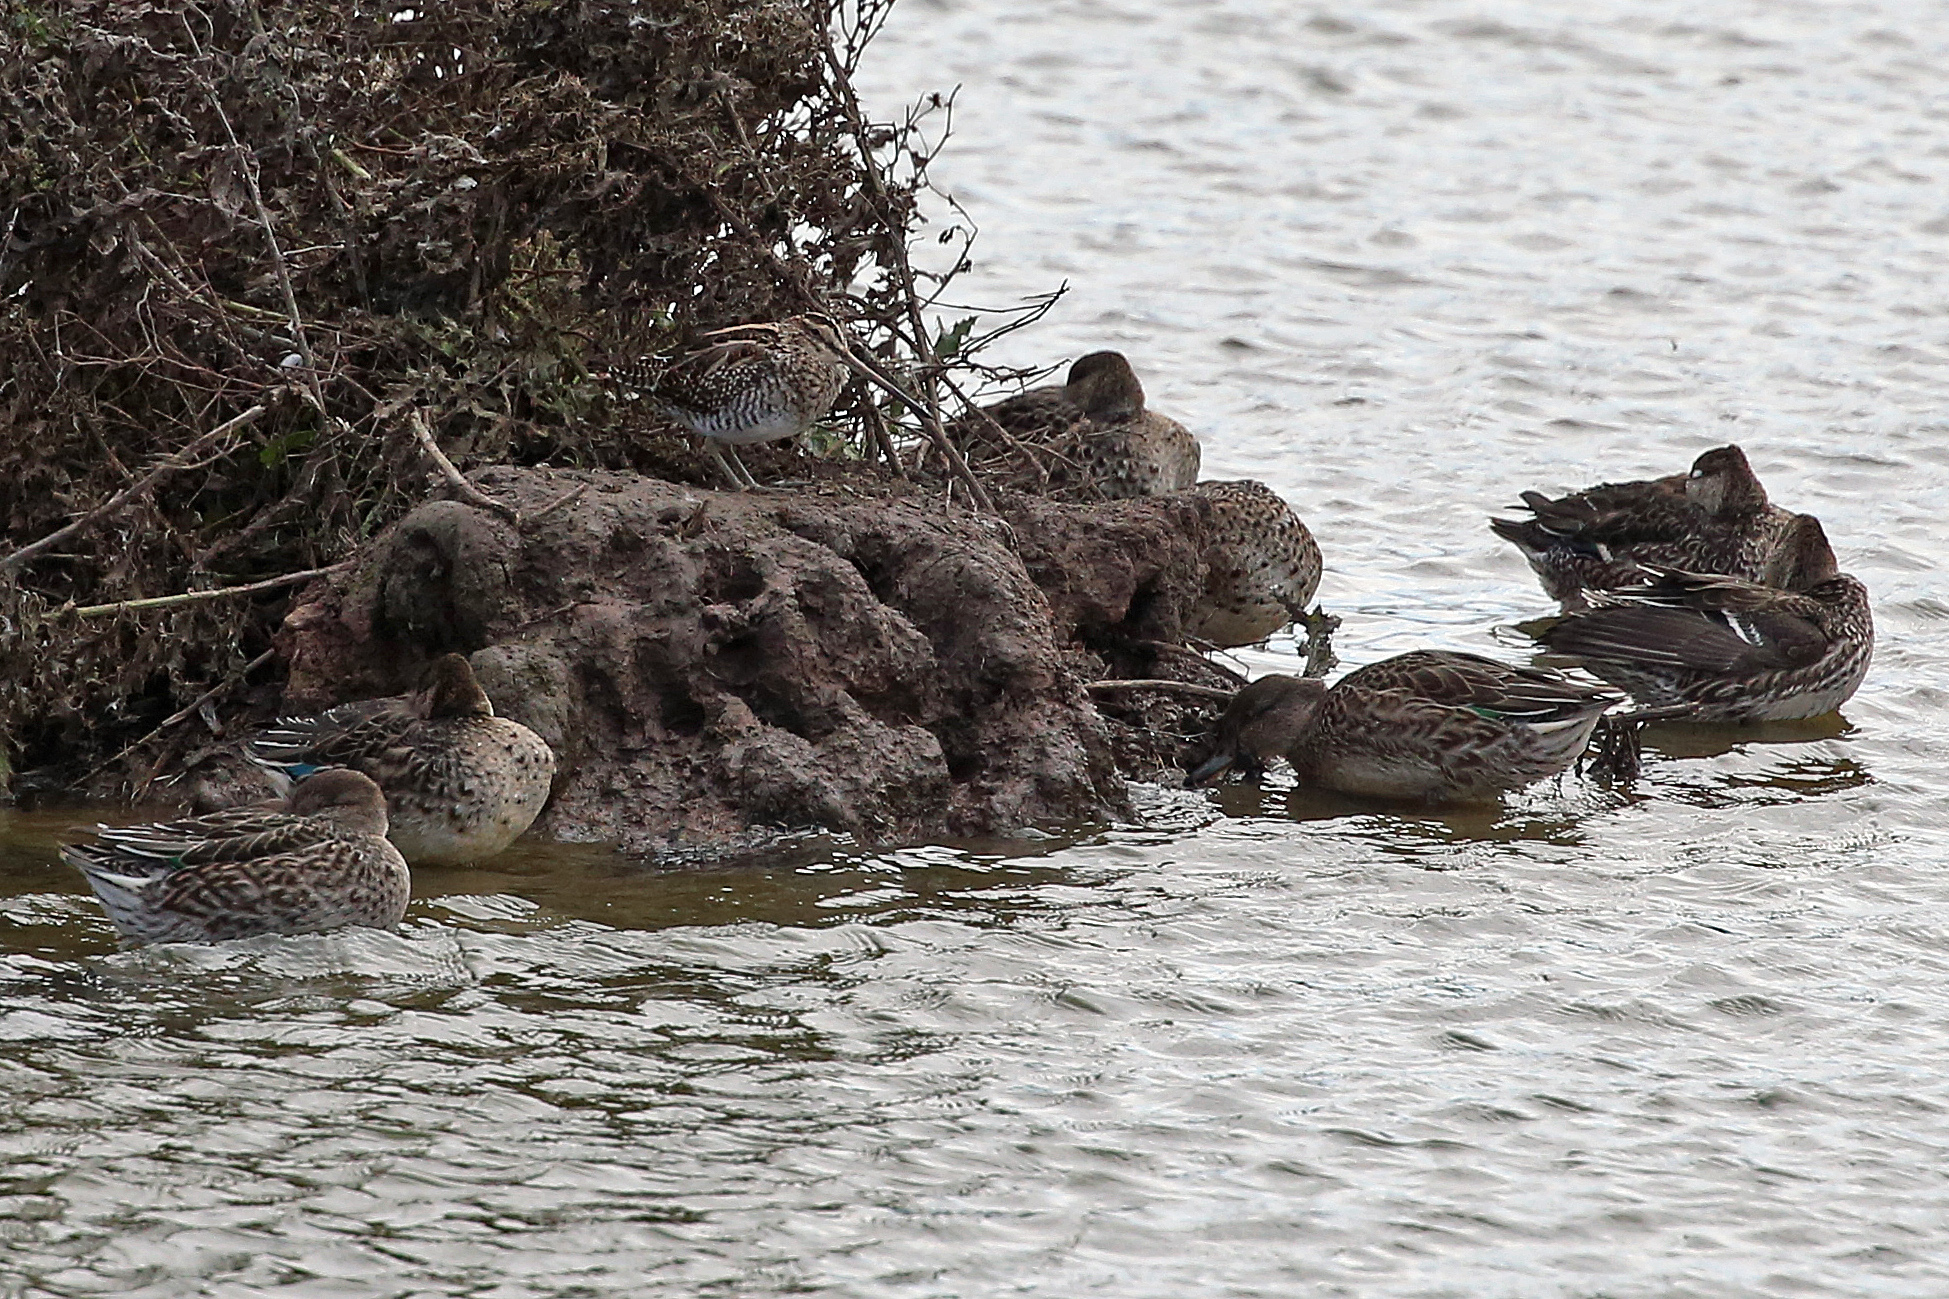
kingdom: Animalia
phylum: Chordata
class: Aves
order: Charadriiformes
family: Scolopacidae
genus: Gallinago
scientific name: Gallinago gallinago
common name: Common snipe
